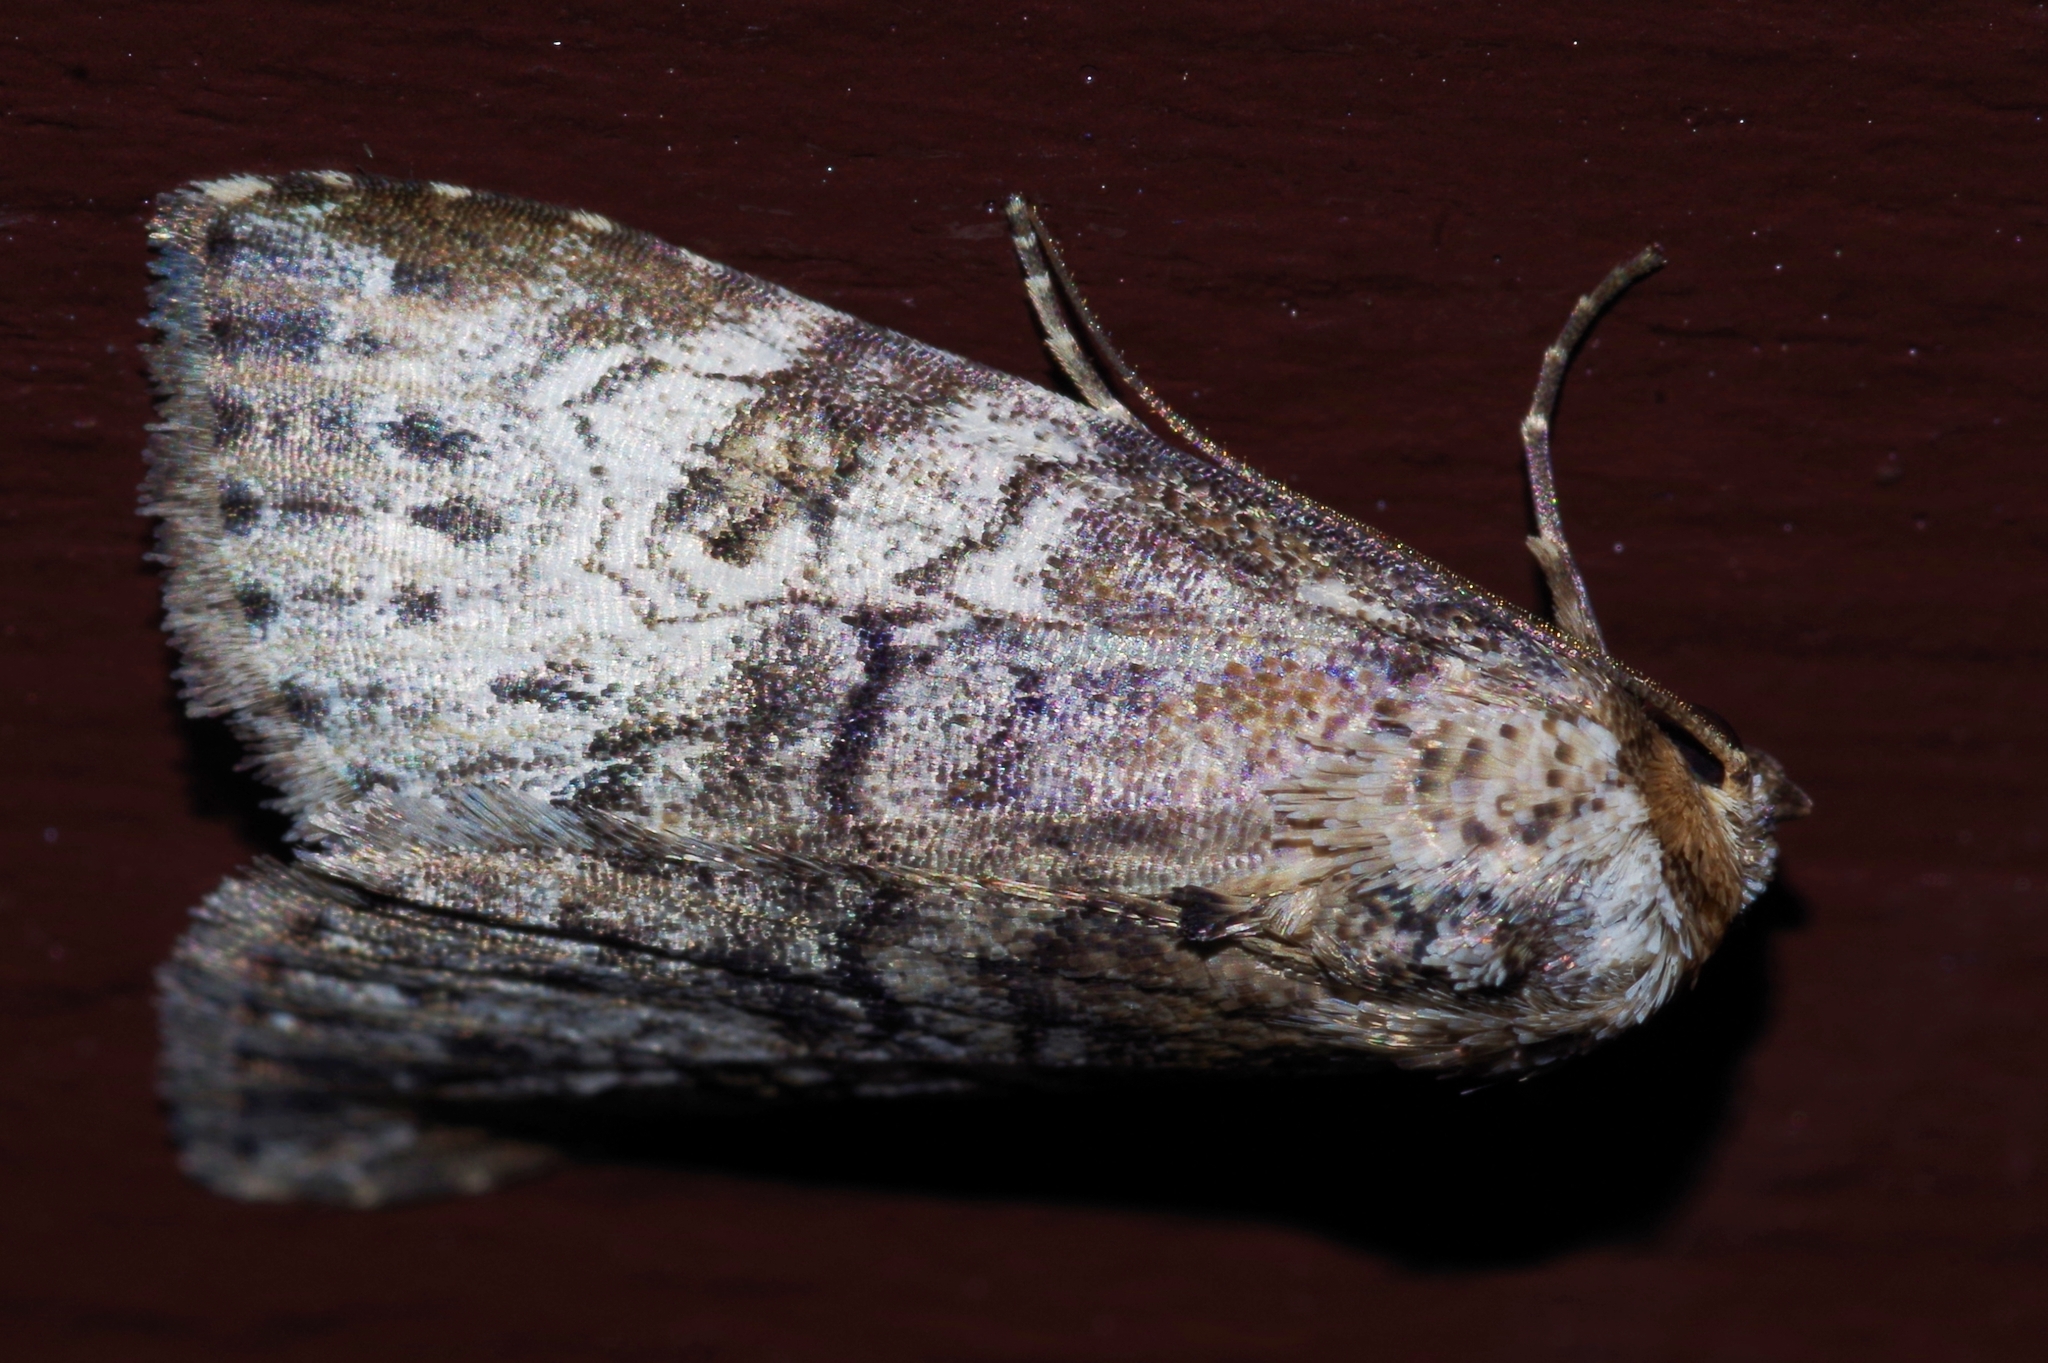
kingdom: Animalia
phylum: Arthropoda
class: Insecta
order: Lepidoptera
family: Erebidae
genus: Chorsia
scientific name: Chorsia mollicula
